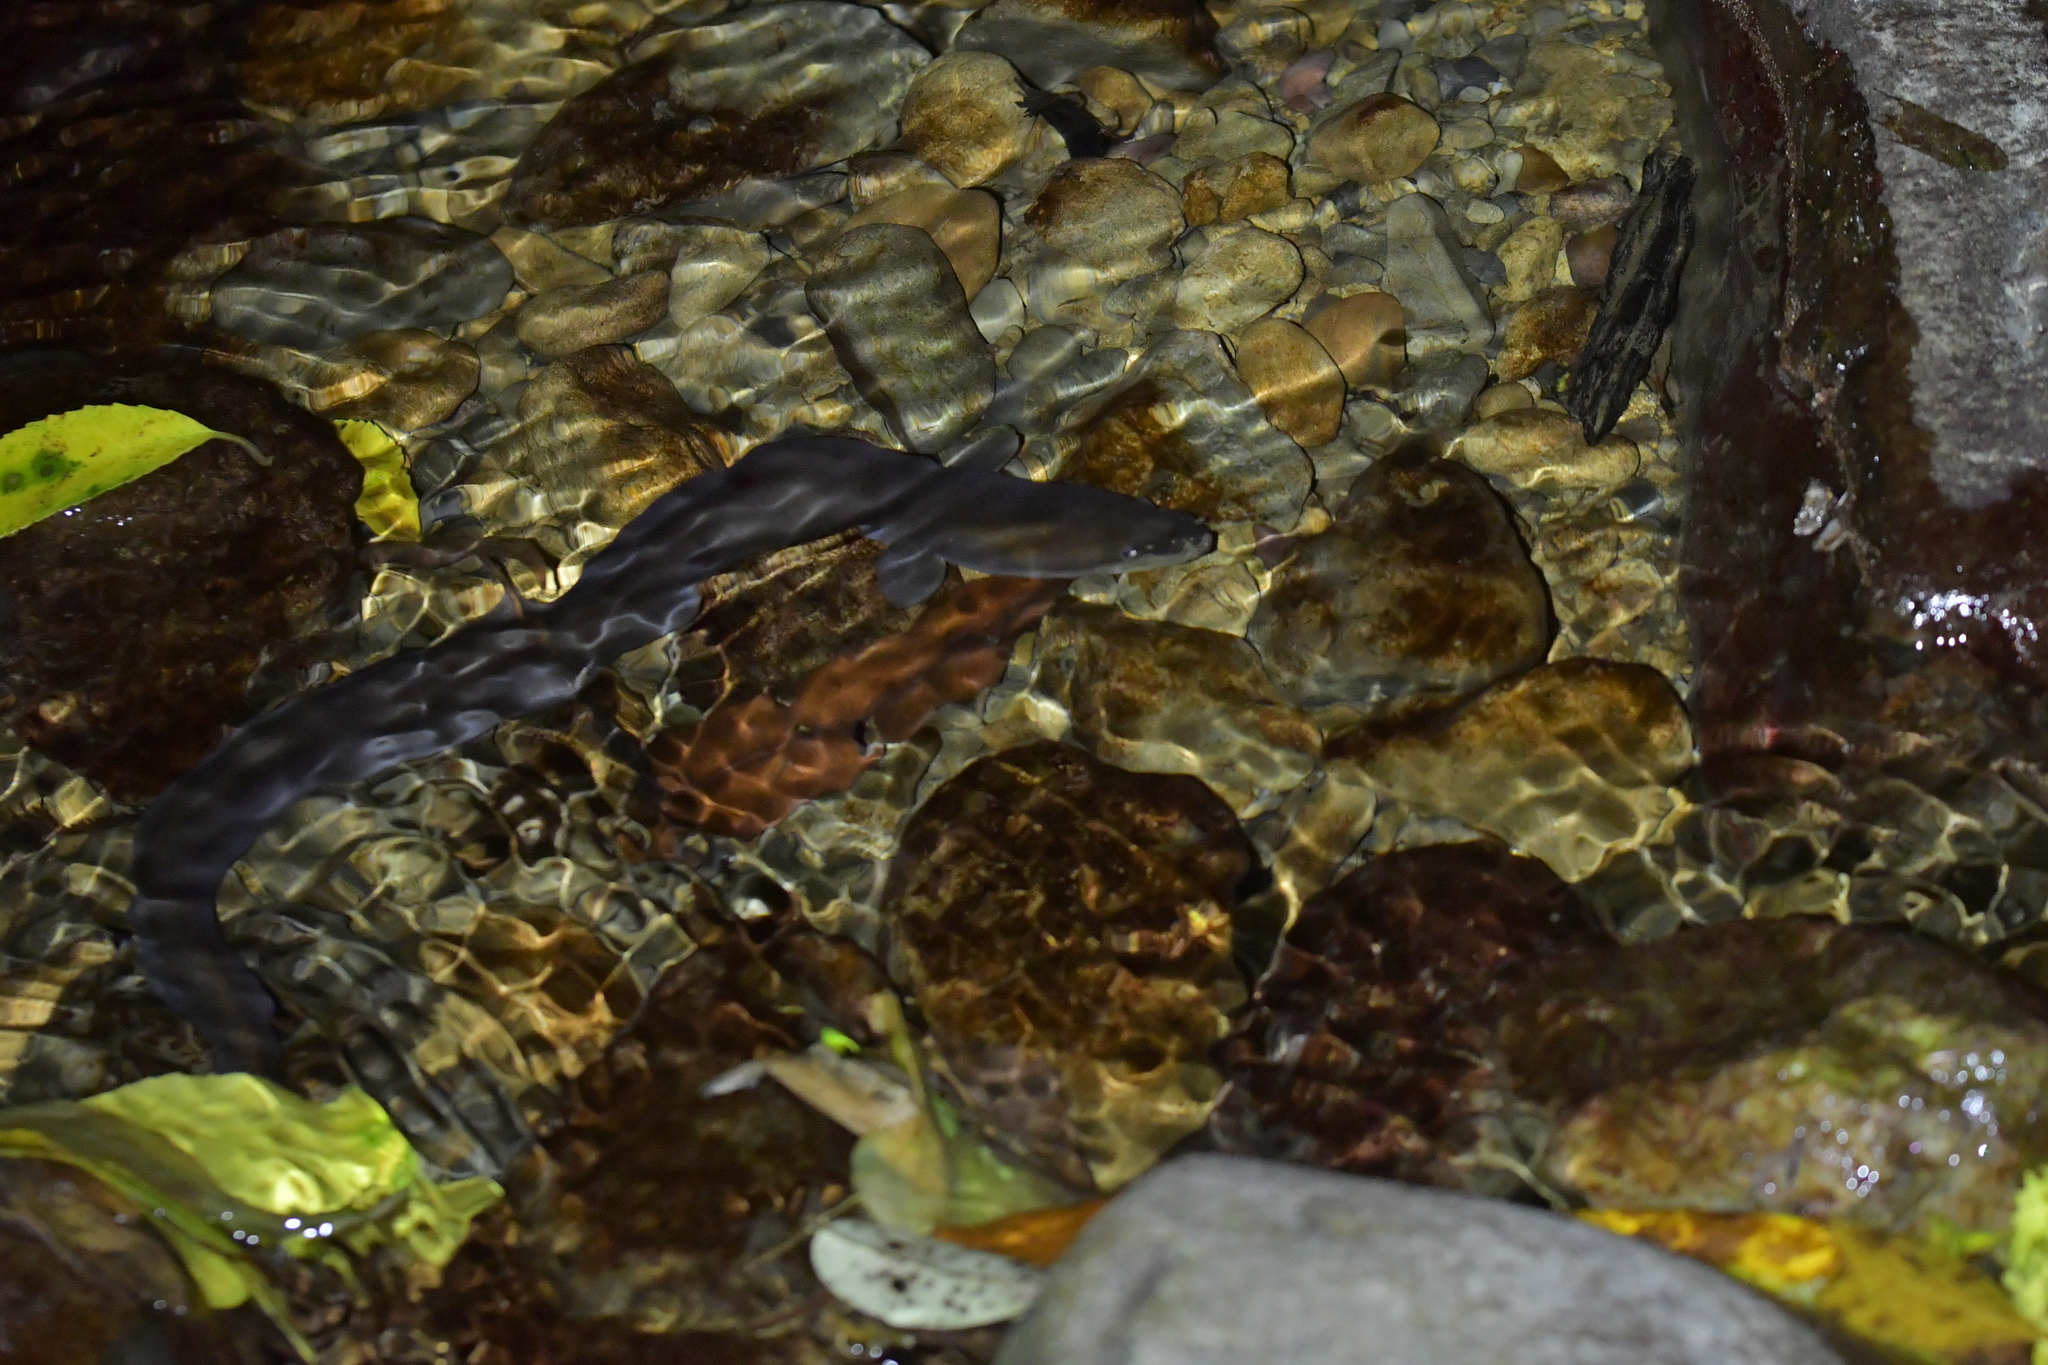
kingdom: Animalia
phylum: Chordata
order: Anguilliformes
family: Anguillidae
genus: Anguilla
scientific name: Anguilla australis
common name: Shortfin eel
